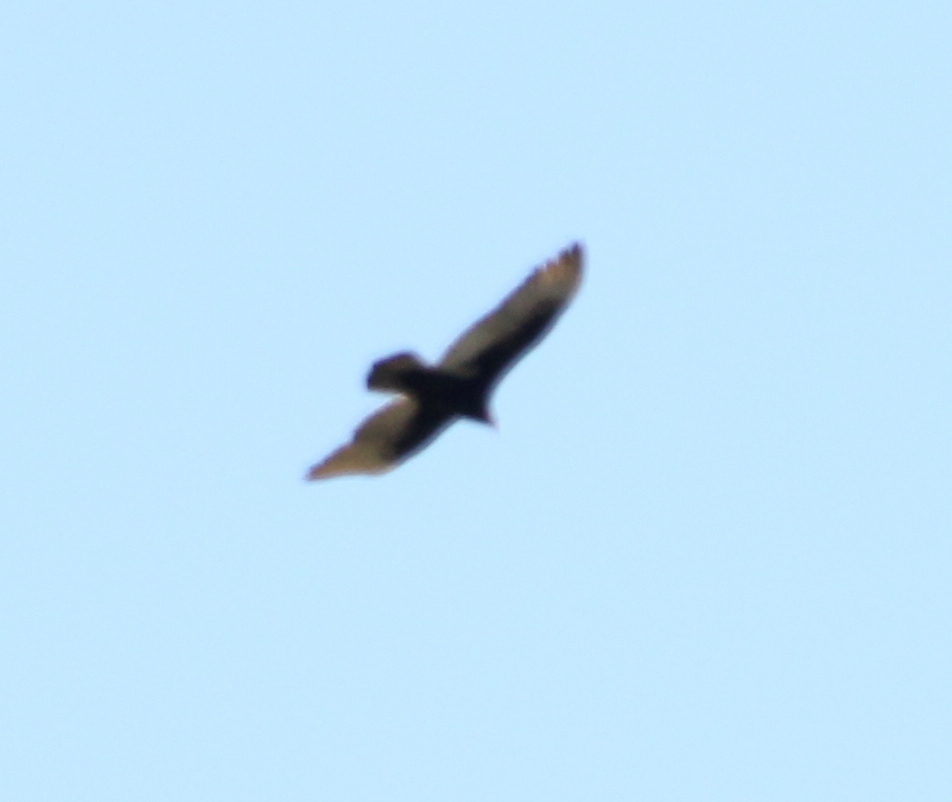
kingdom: Animalia
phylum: Chordata
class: Aves
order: Accipitriformes
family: Cathartidae
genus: Cathartes
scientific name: Cathartes aura
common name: Turkey vulture
